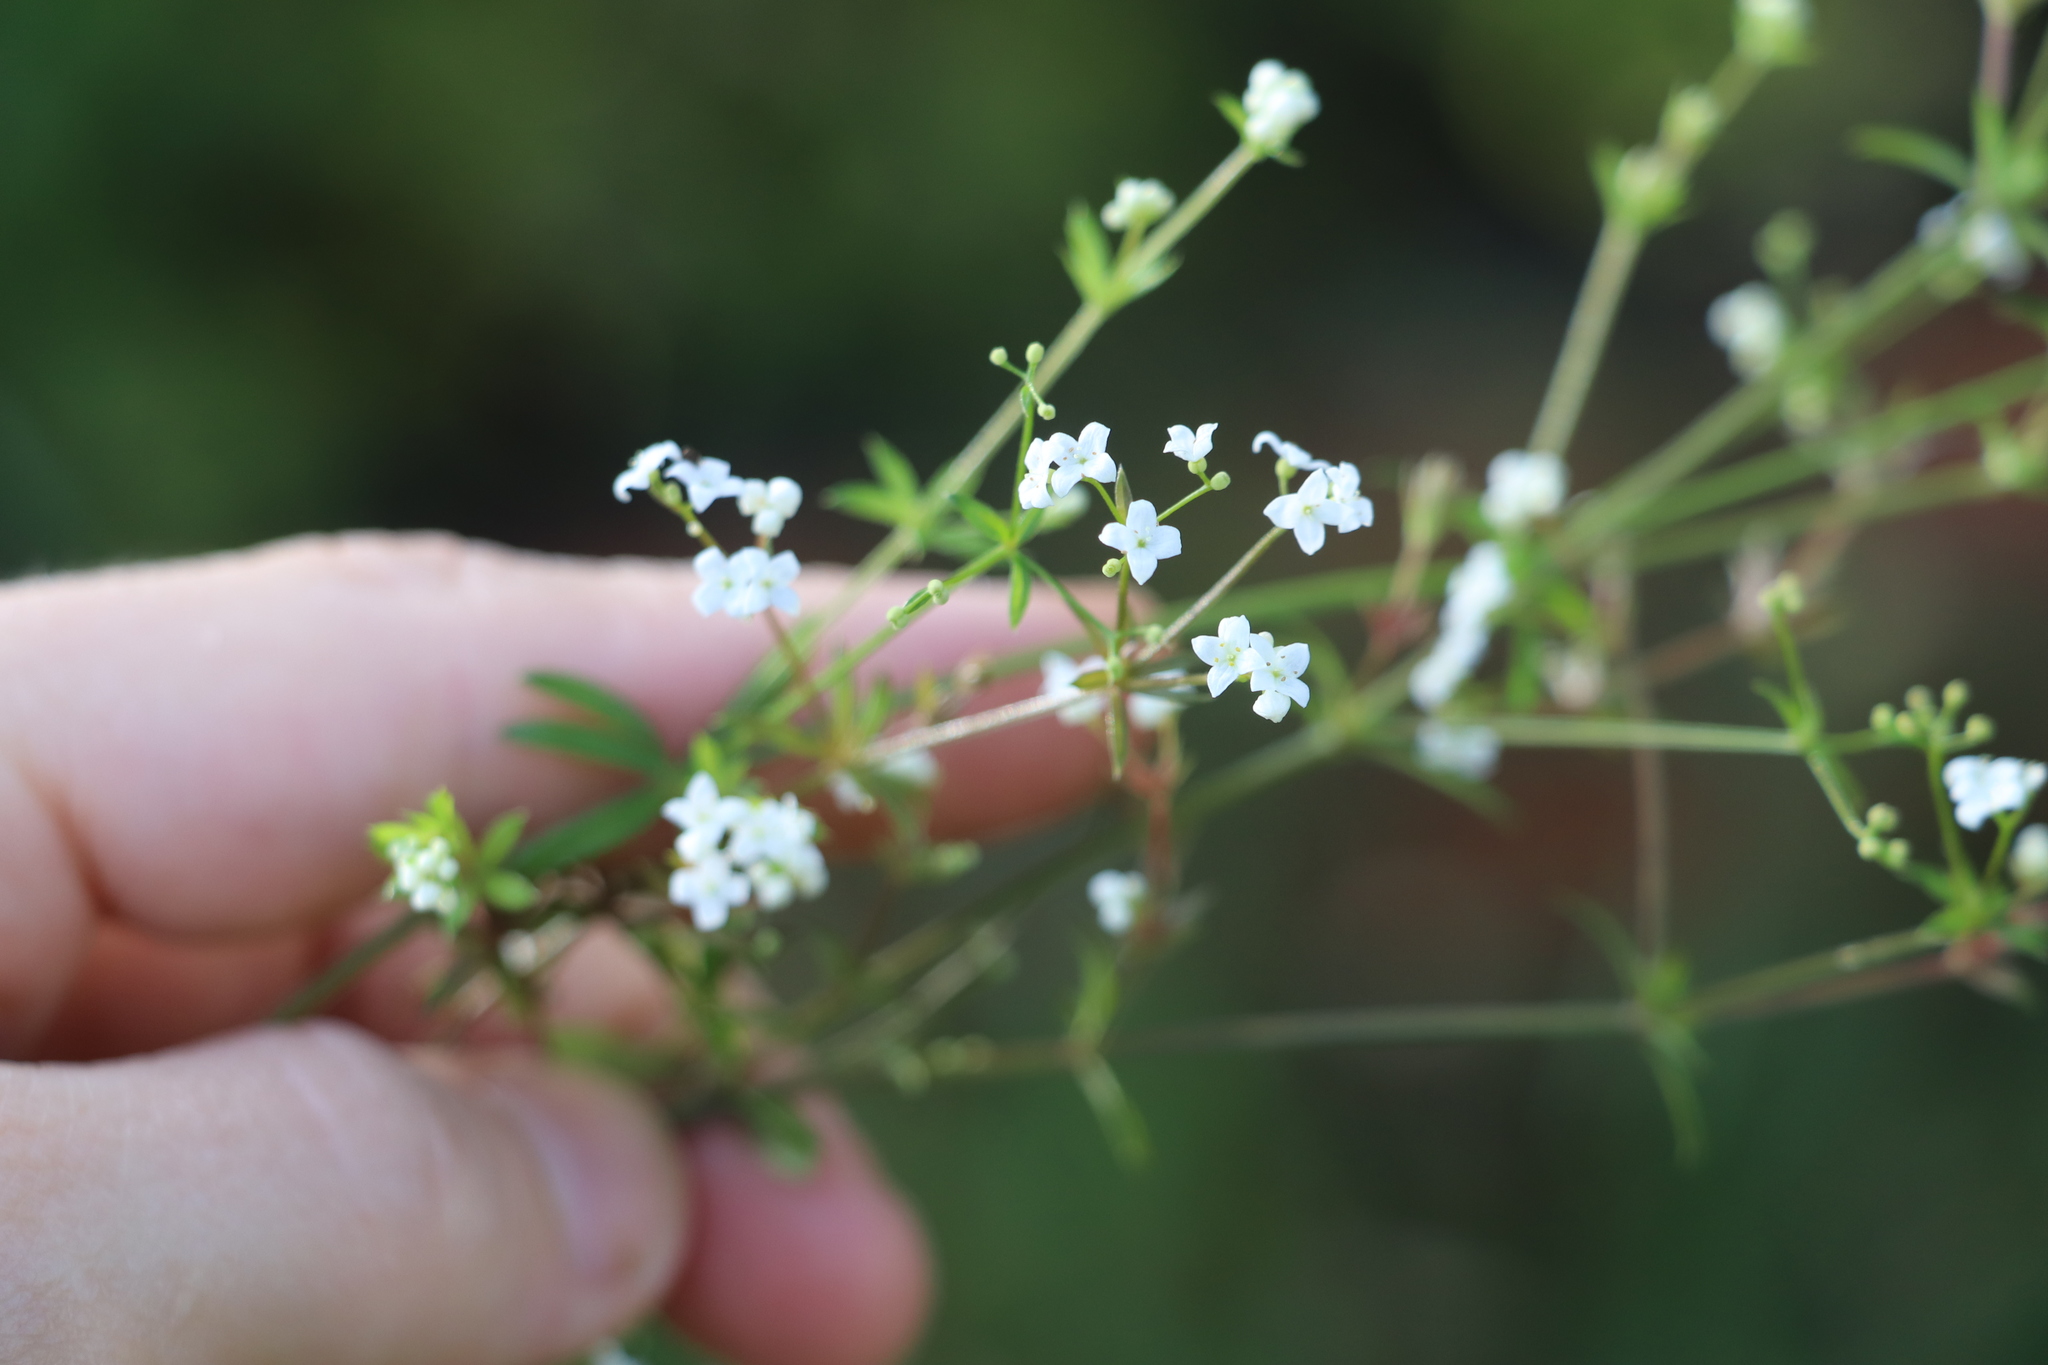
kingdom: Plantae
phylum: Tracheophyta
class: Magnoliopsida
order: Gentianales
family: Rubiaceae
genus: Galium
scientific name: Galium uliginosum
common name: Fen bedstraw
